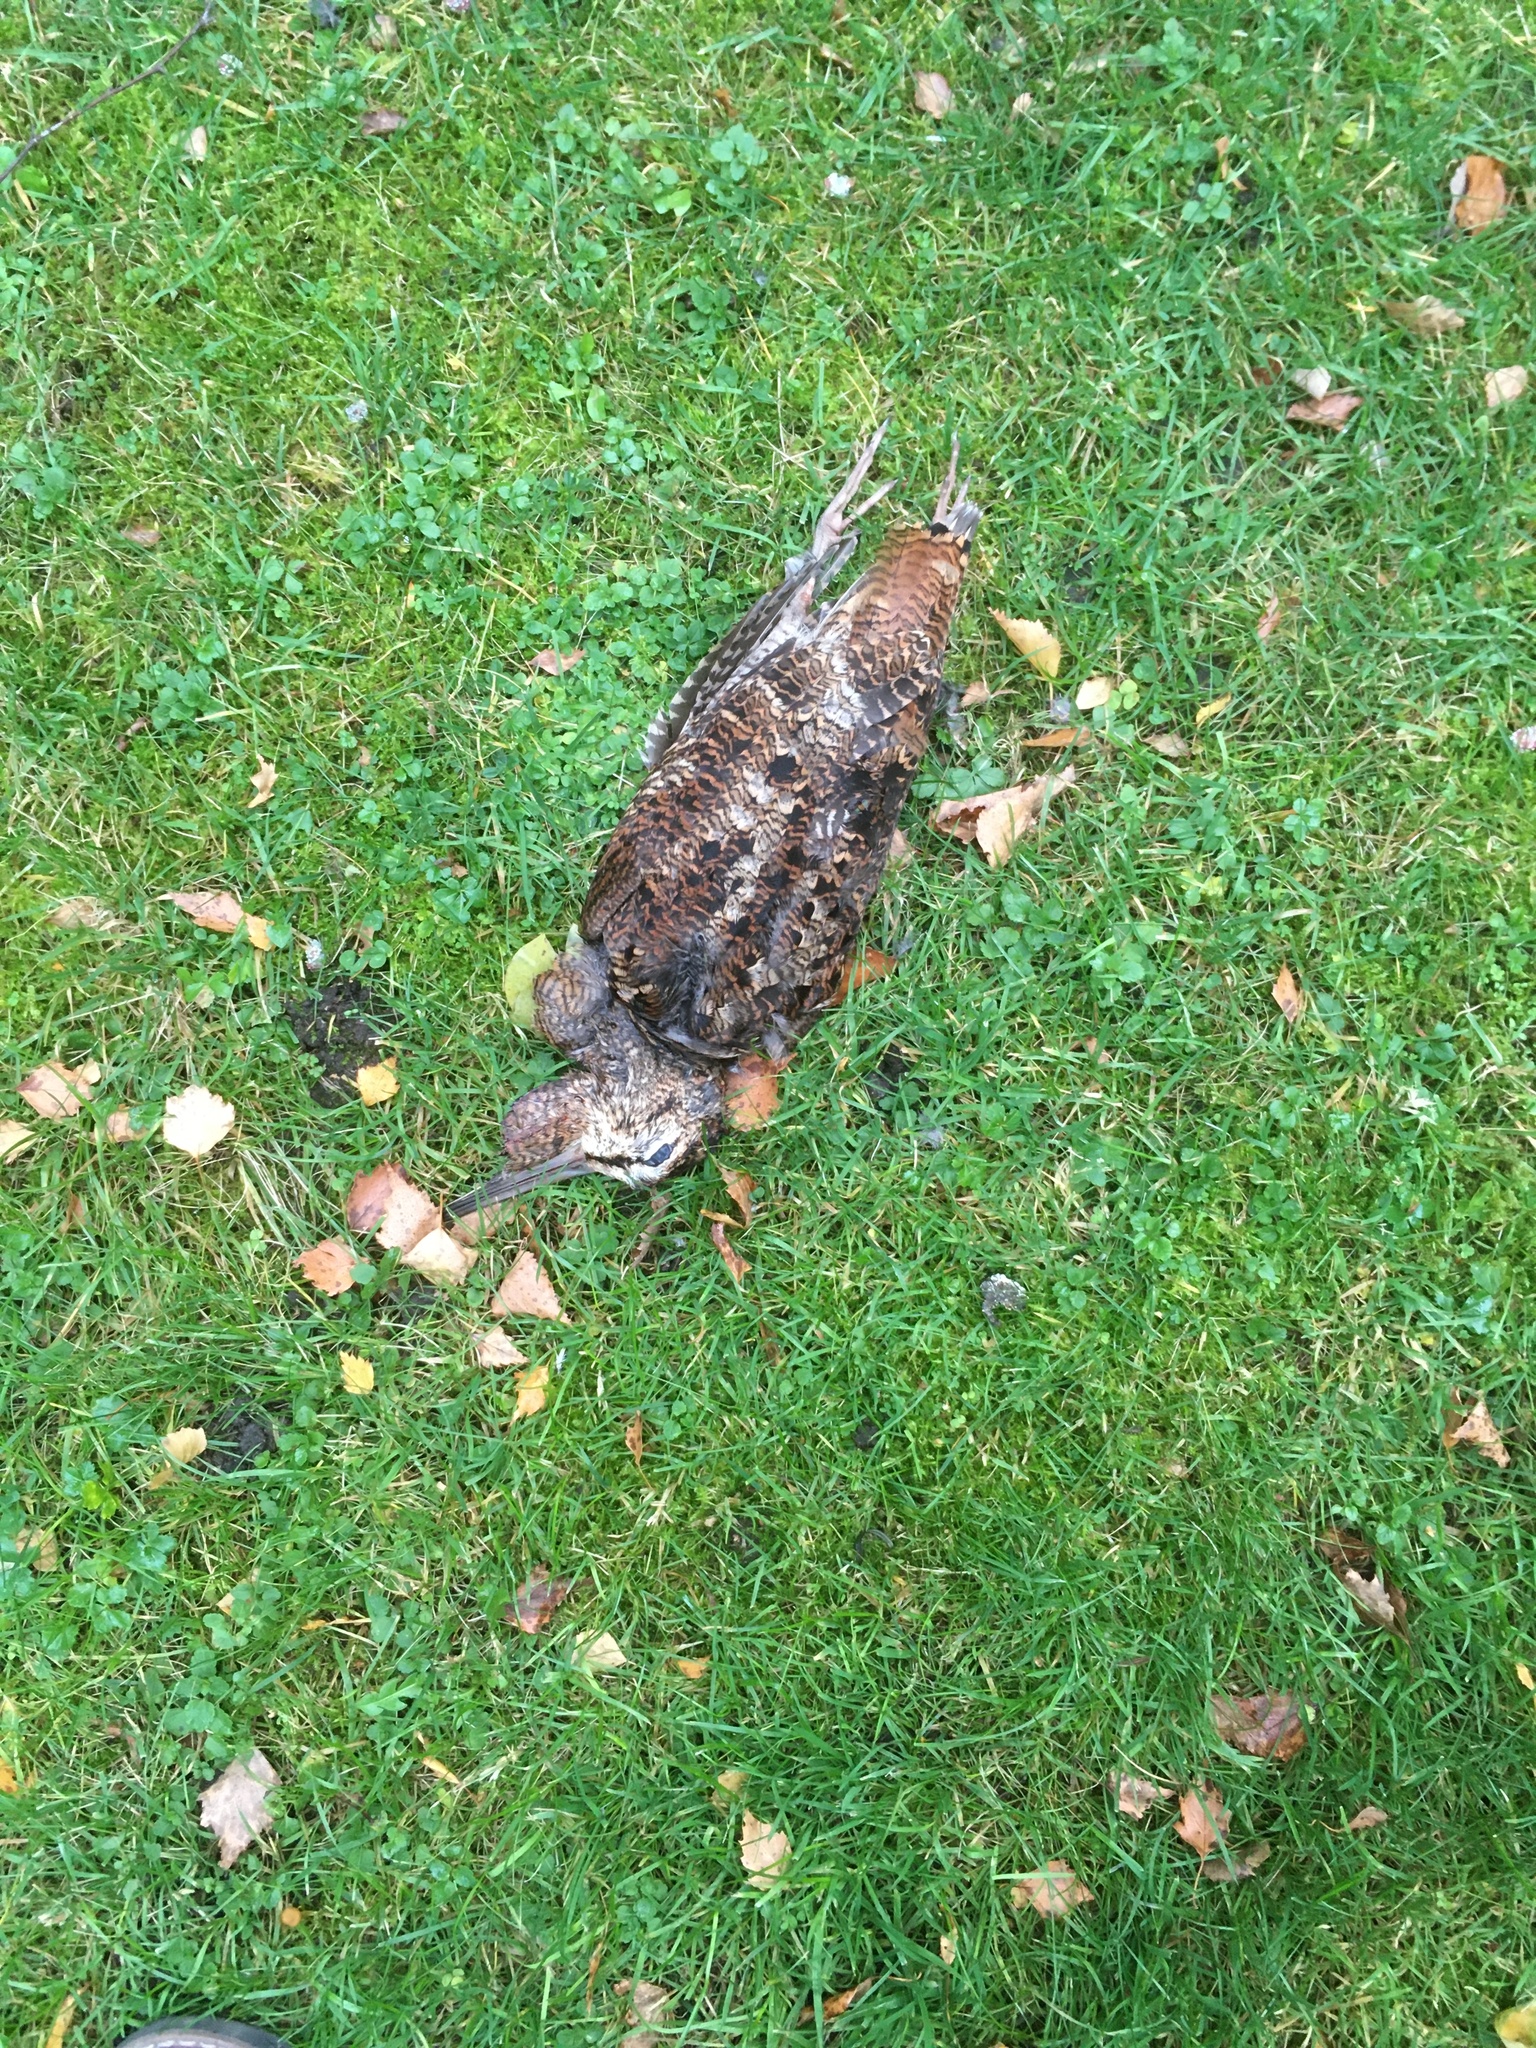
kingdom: Animalia
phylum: Chordata
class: Aves
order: Charadriiformes
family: Scolopacidae
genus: Scolopax
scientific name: Scolopax rusticola
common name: Eurasian woodcock
